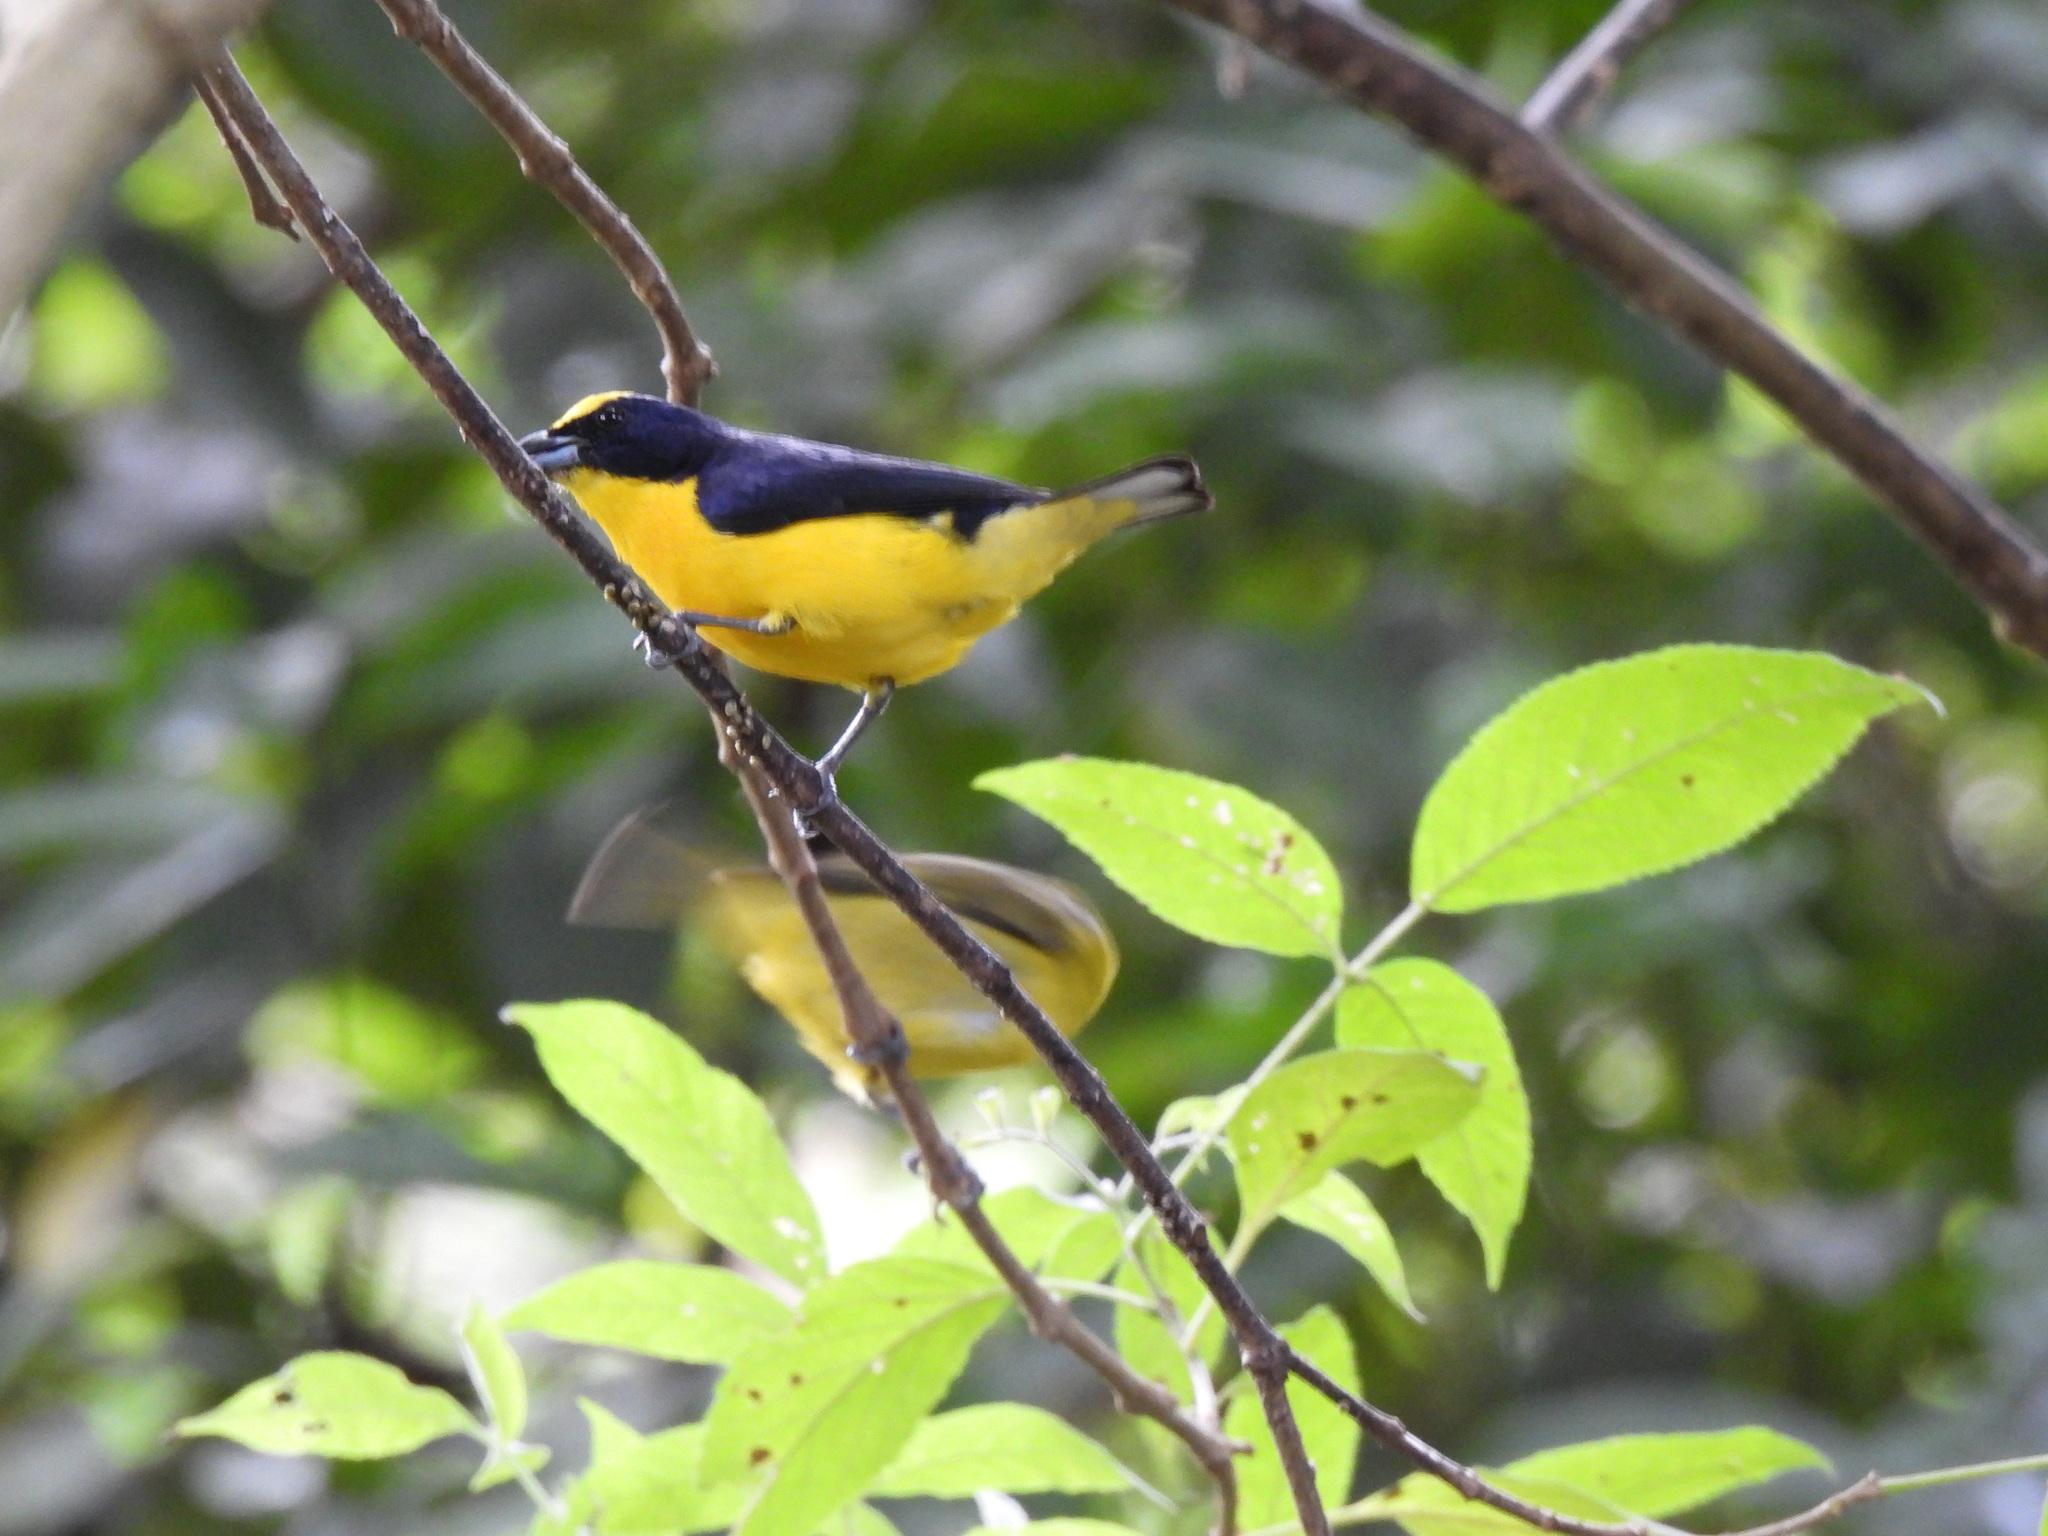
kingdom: Animalia
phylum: Chordata
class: Aves
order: Passeriformes
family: Fringillidae
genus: Euphonia
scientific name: Euphonia laniirostris
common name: Thick-billed euphonia
